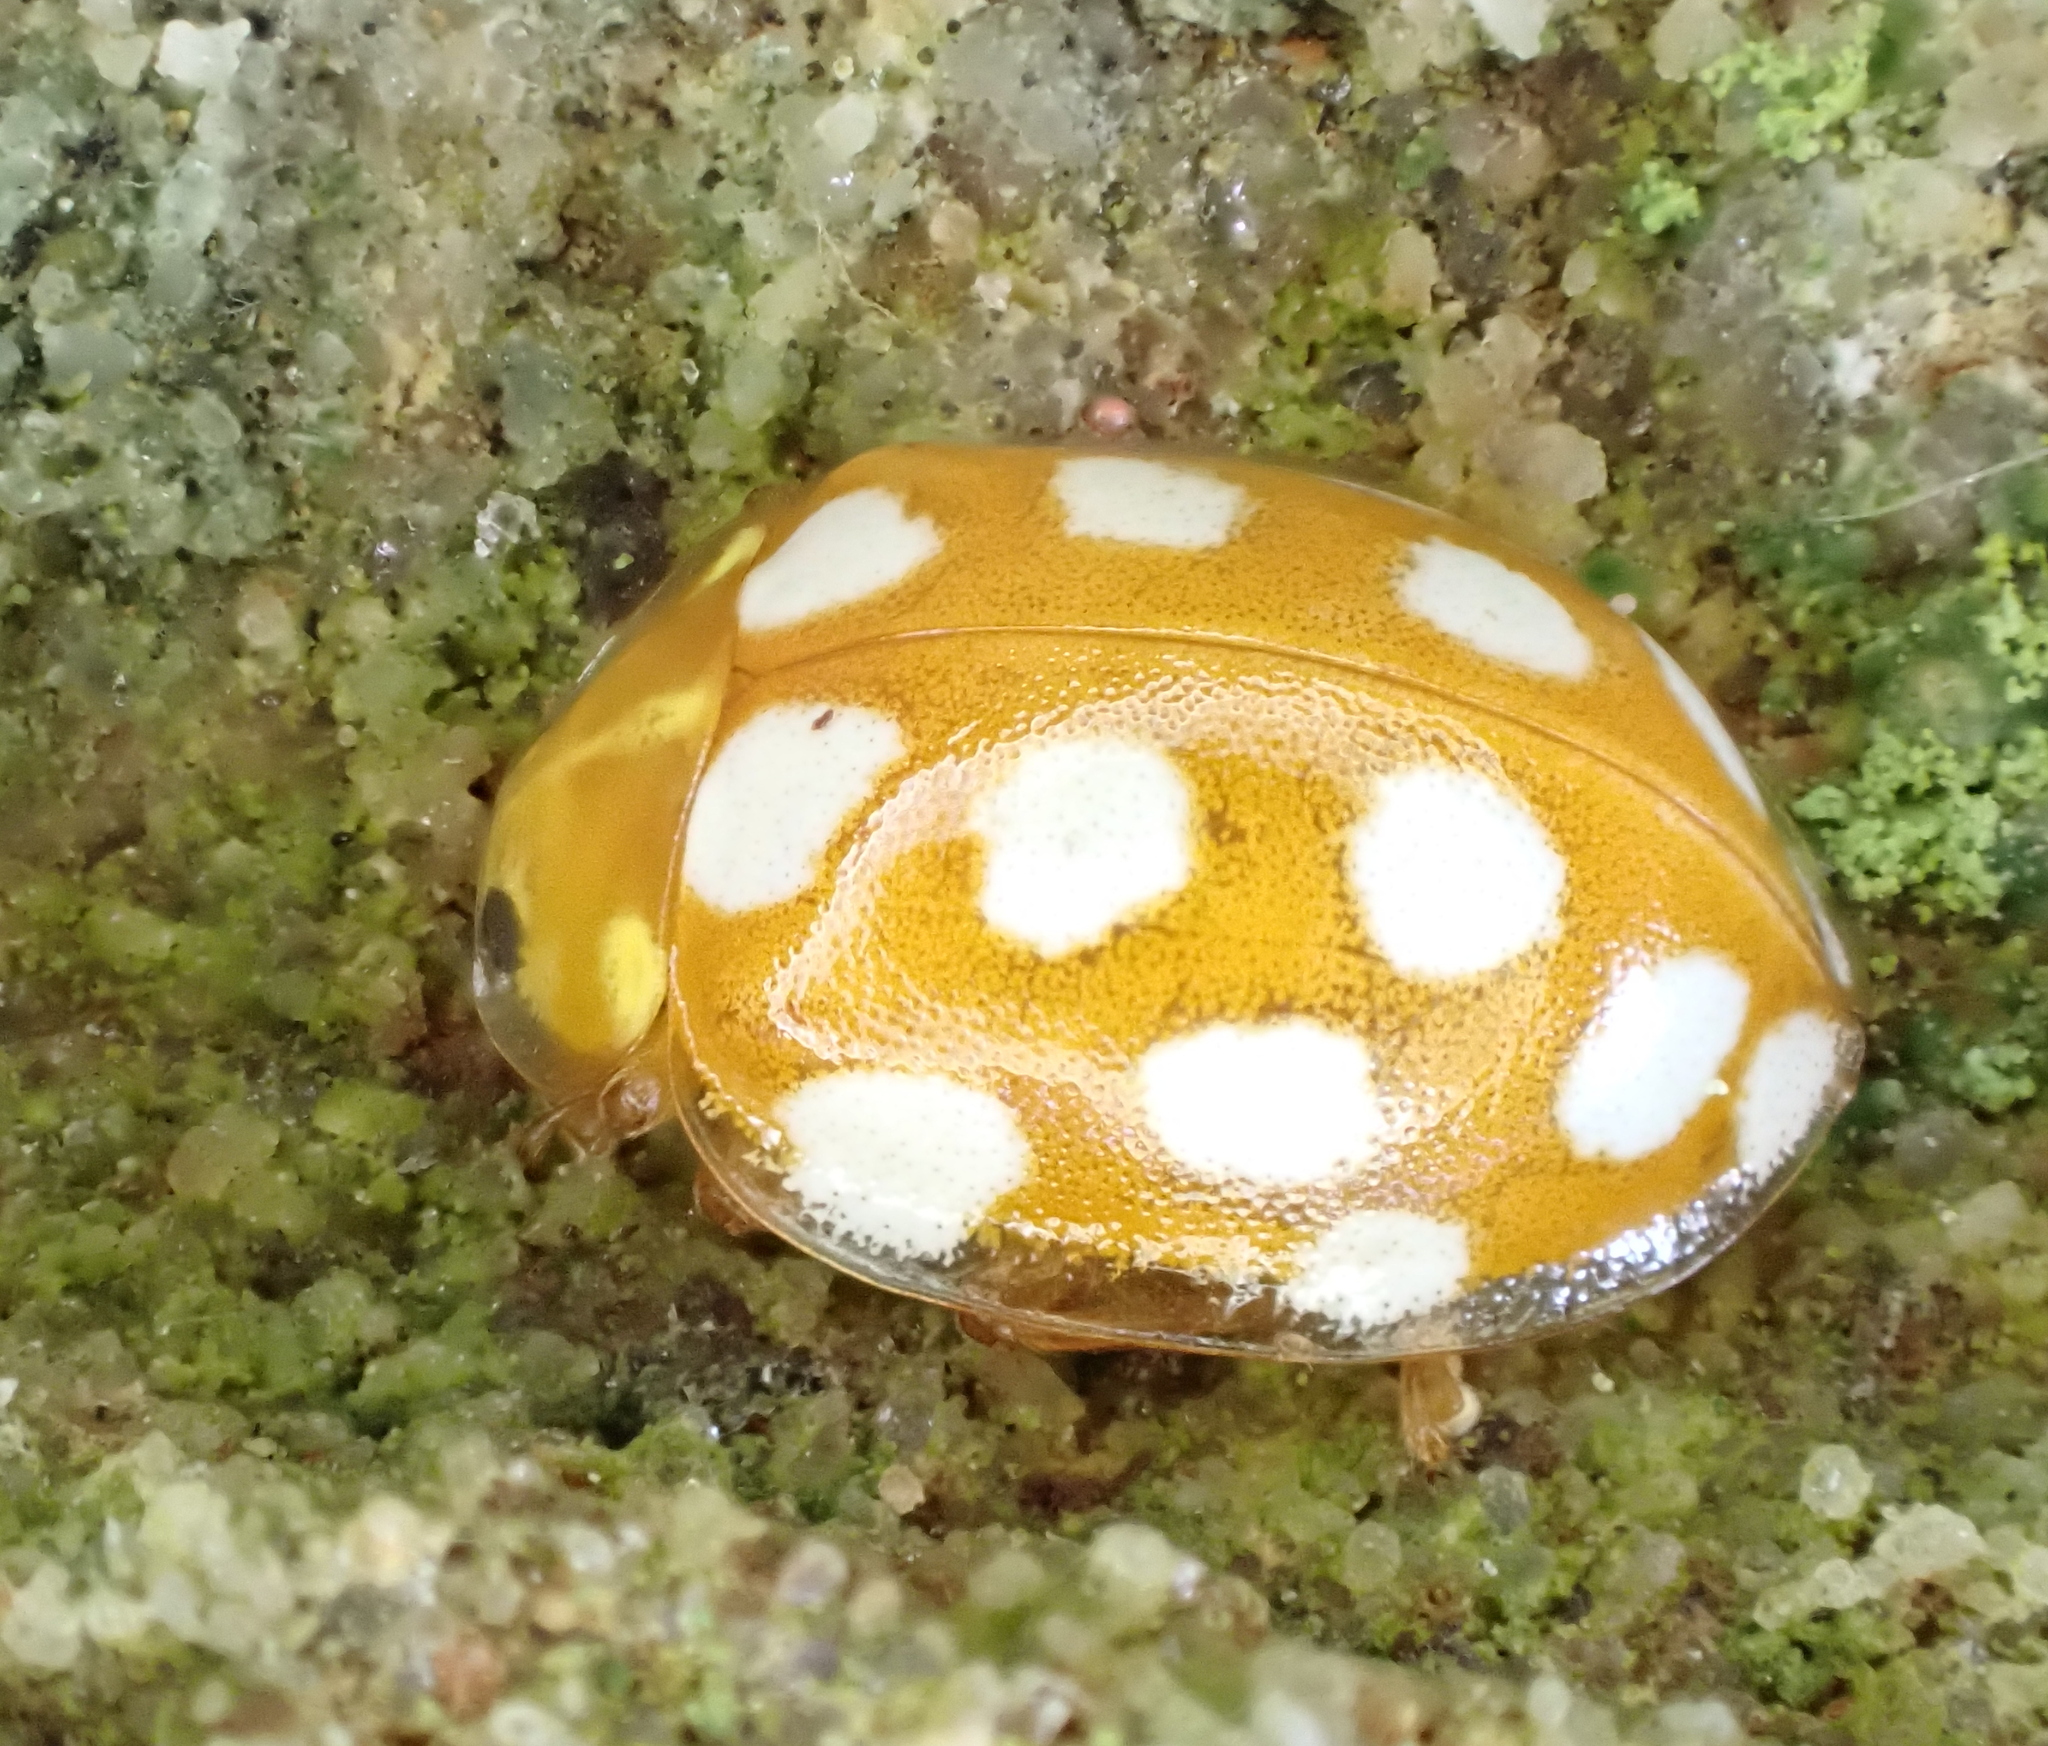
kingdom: Animalia
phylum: Arthropoda
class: Insecta
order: Coleoptera
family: Coccinellidae
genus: Halyzia
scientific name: Halyzia sedecimguttata
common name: Orange ladybird
